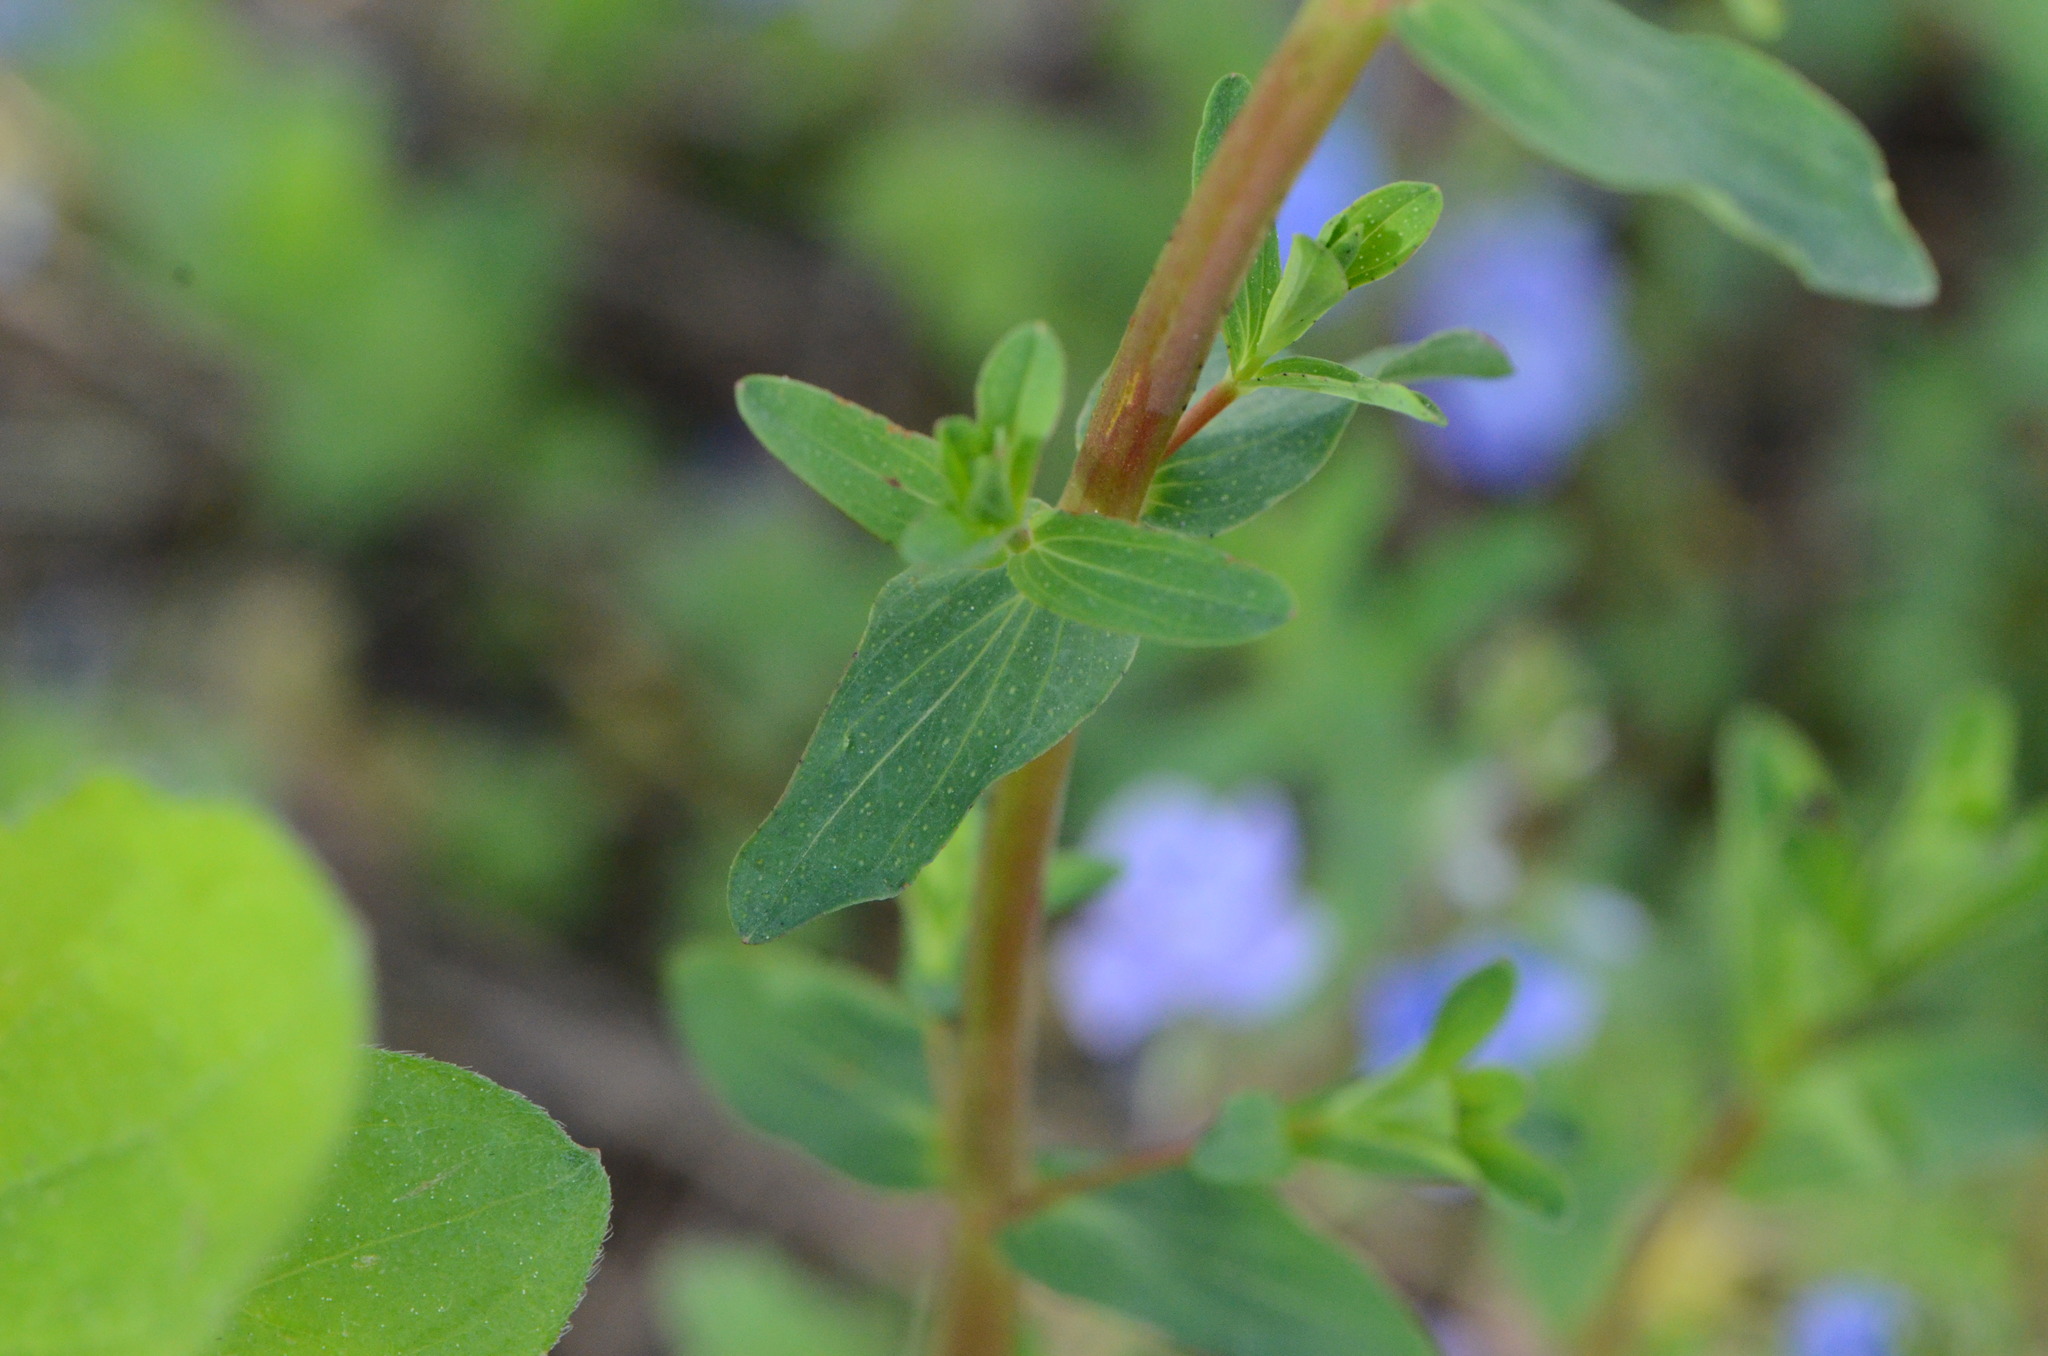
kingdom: Plantae
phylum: Tracheophyta
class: Magnoliopsida
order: Malpighiales
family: Hypericaceae
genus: Hypericum
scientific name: Hypericum perforatum
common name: Common st. johnswort
